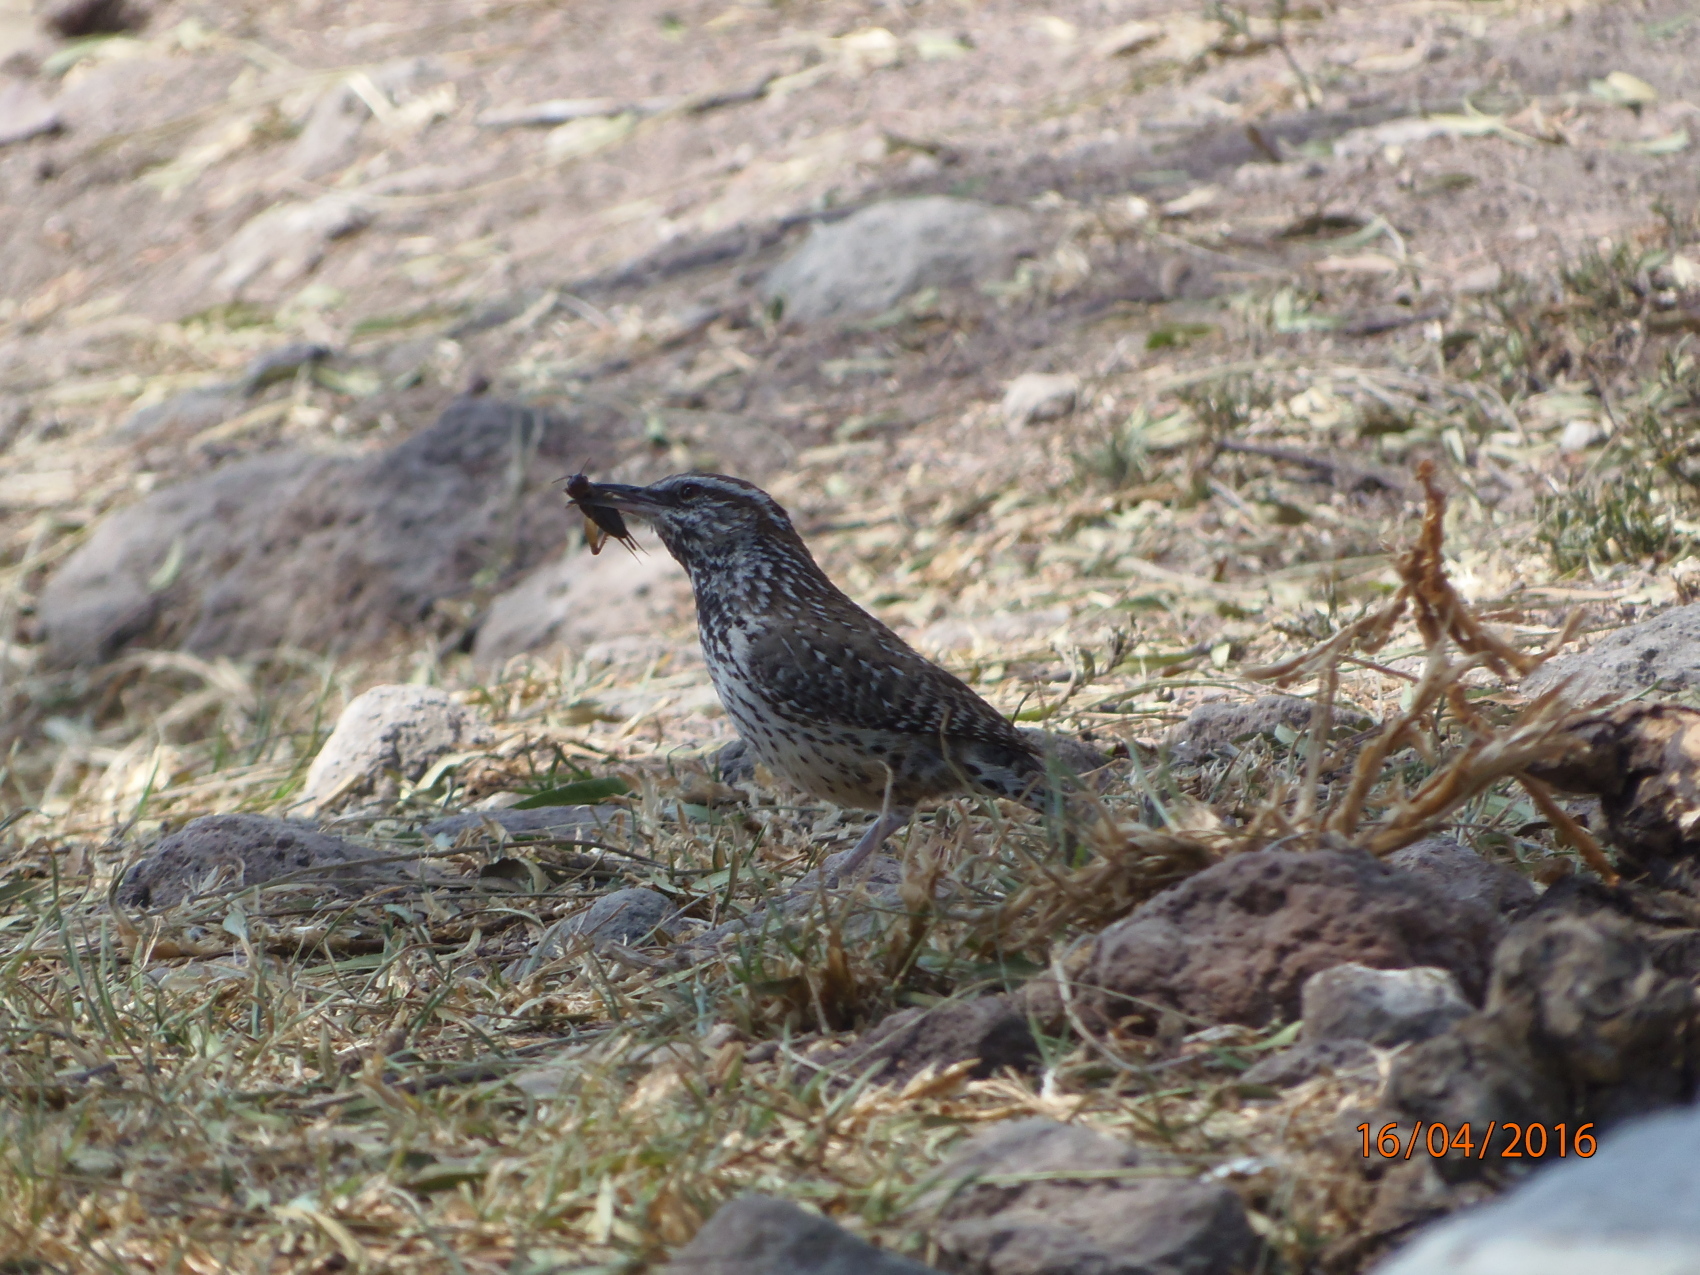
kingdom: Animalia
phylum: Chordata
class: Aves
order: Passeriformes
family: Troglodytidae
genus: Campylorhynchus
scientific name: Campylorhynchus brunneicapillus
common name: Cactus wren
